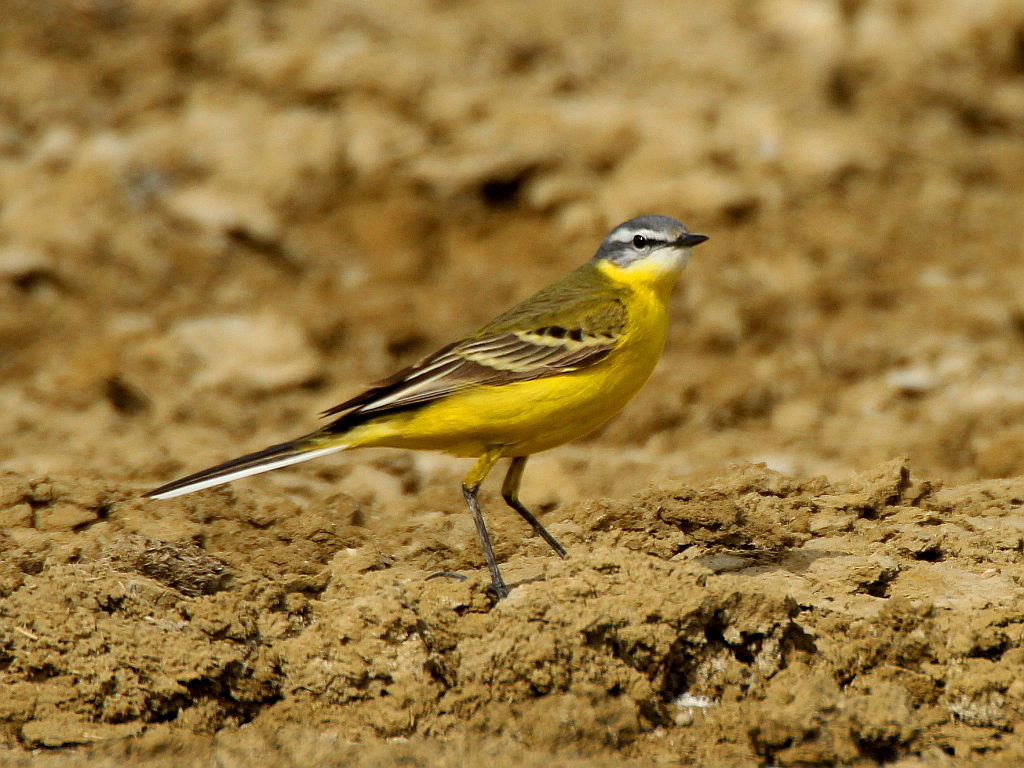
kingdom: Animalia
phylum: Chordata
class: Aves
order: Passeriformes
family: Motacillidae
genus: Motacilla
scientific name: Motacilla flava
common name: Western yellow wagtail
